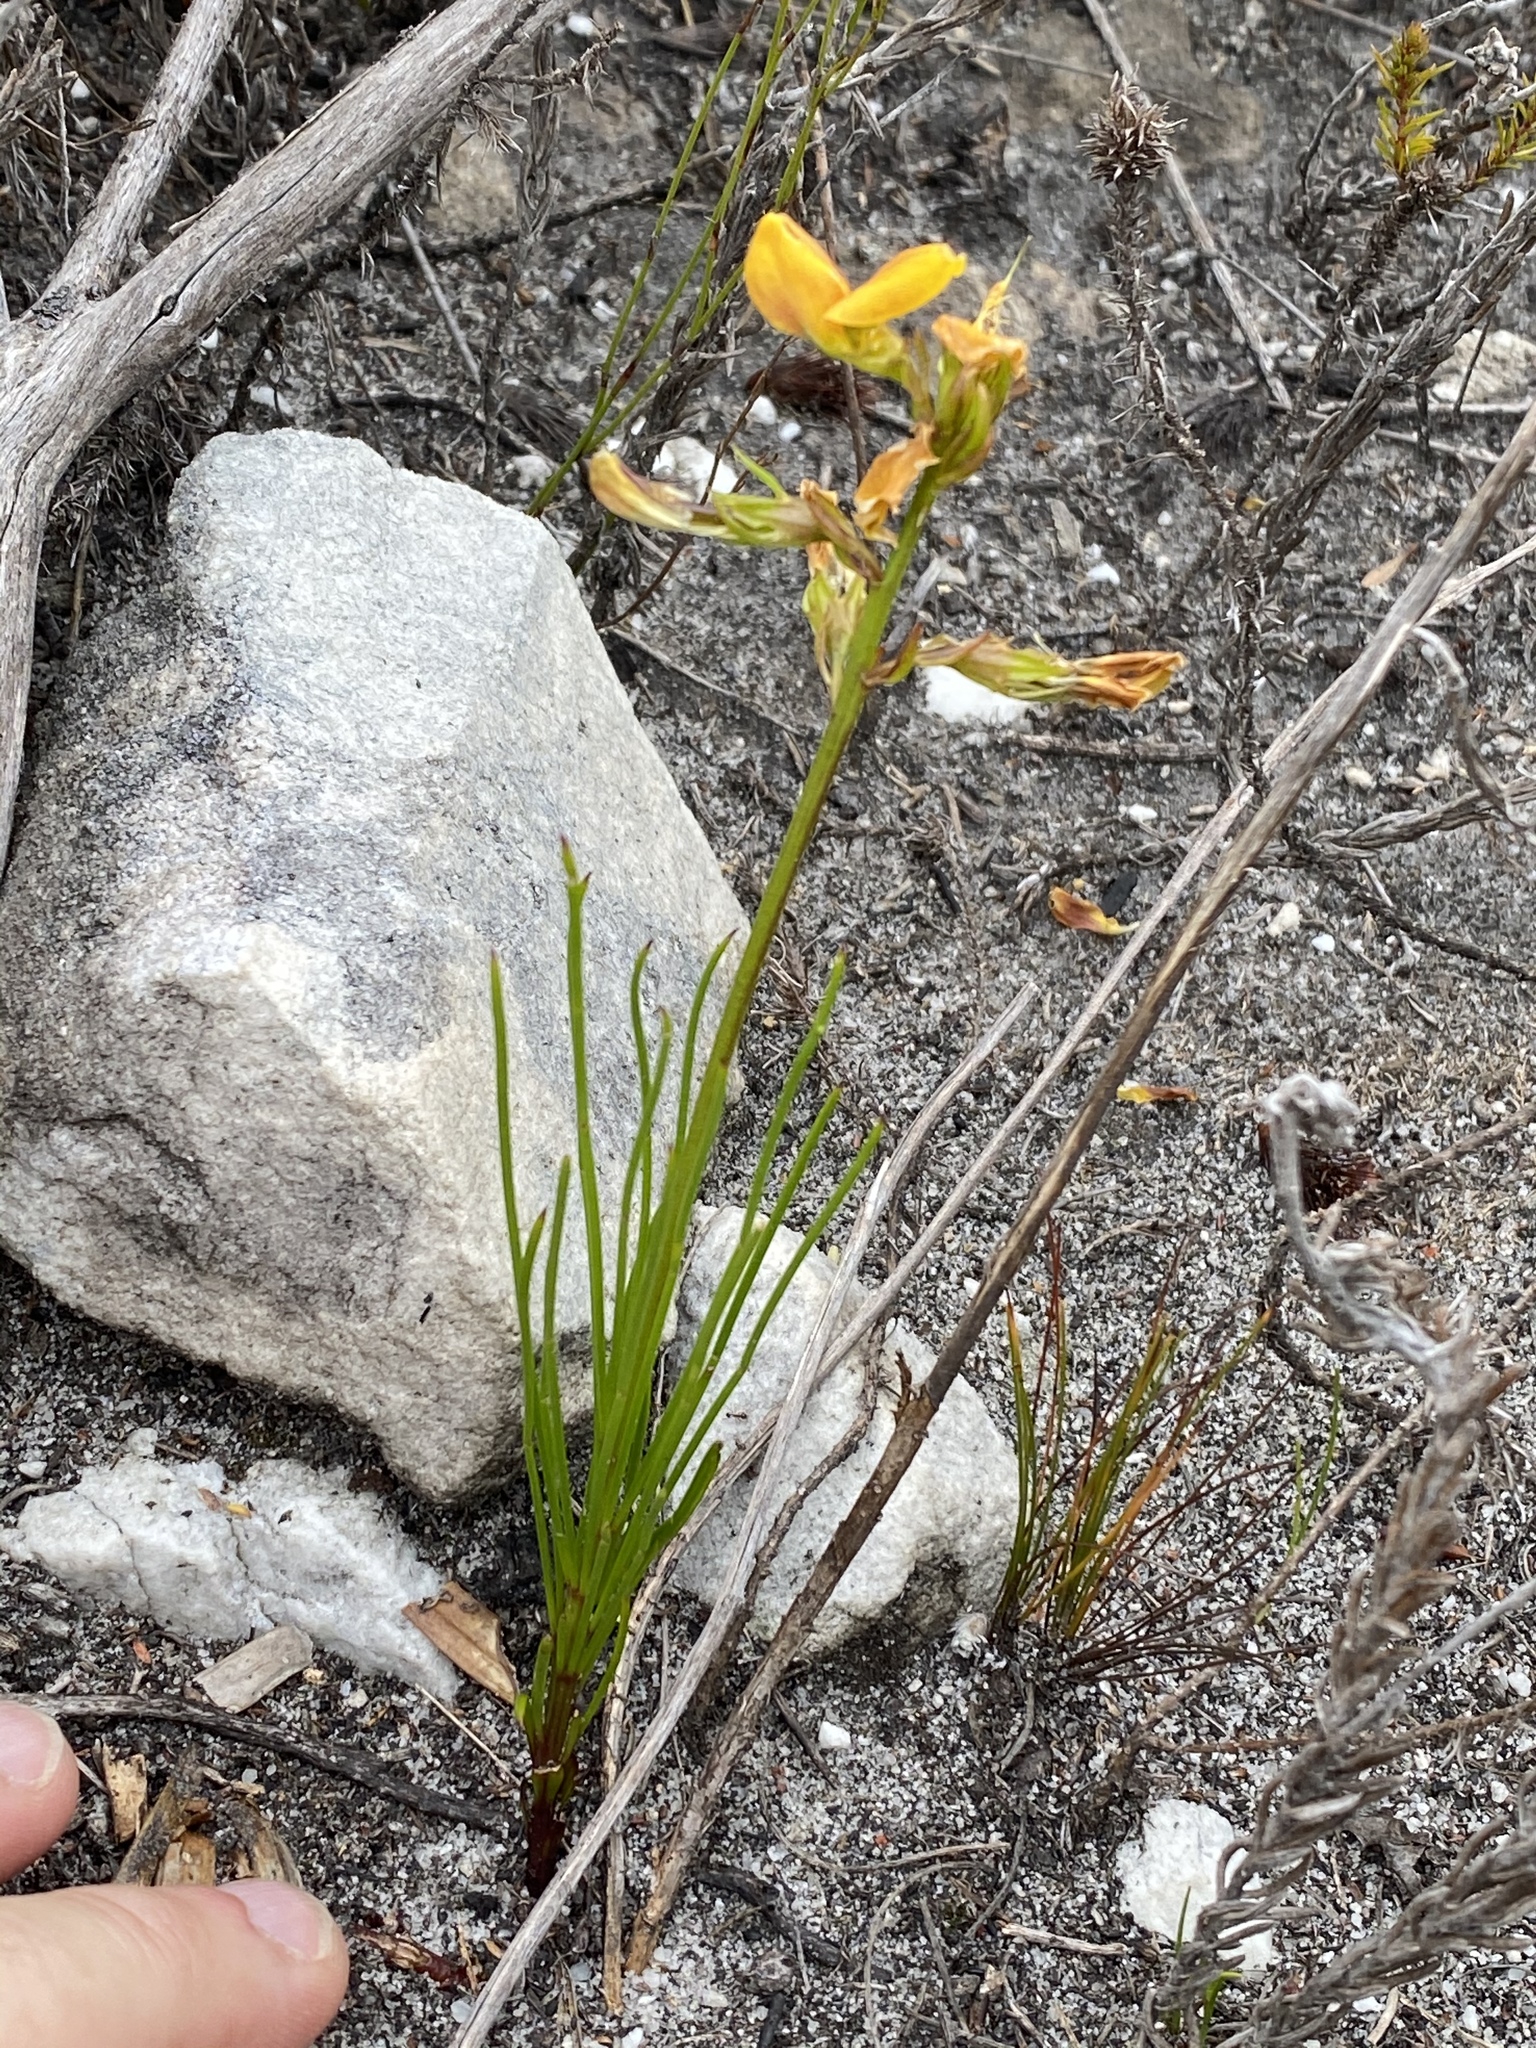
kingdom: Plantae
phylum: Tracheophyta
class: Magnoliopsida
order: Fabales
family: Fabaceae
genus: Lebeckia
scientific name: Lebeckia grandiflora
